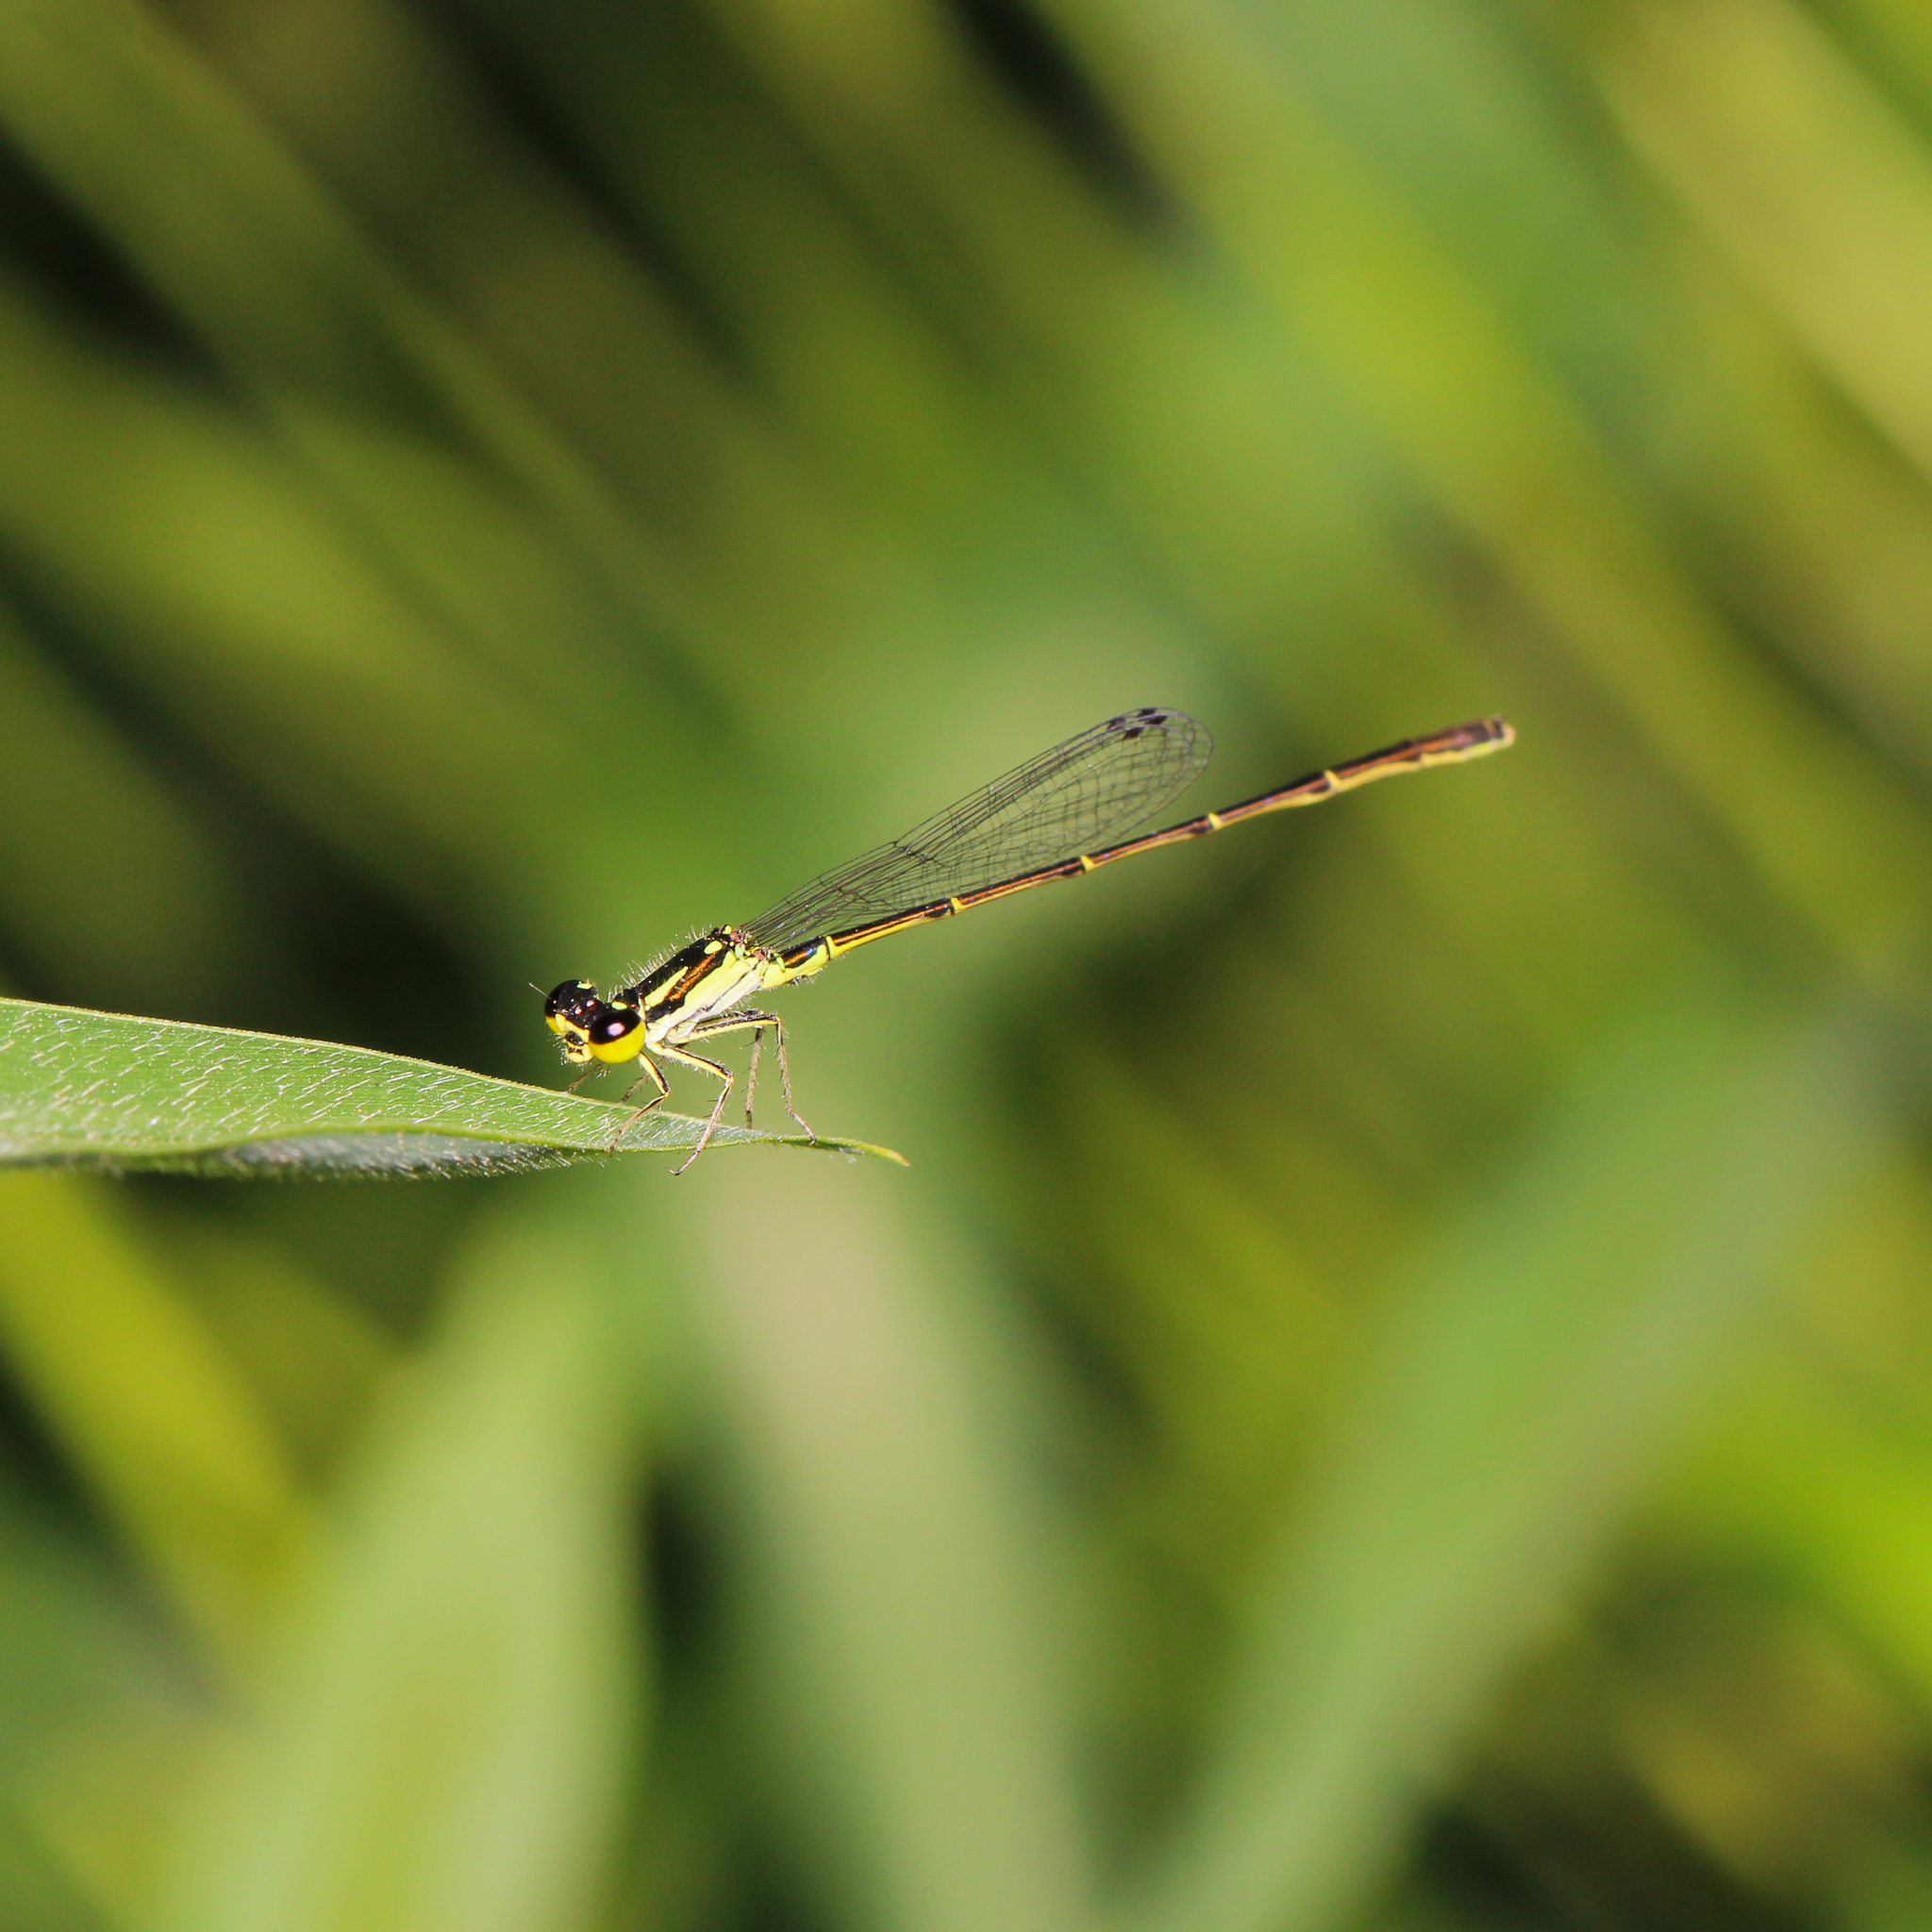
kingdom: Animalia
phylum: Arthropoda
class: Insecta
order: Odonata
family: Coenagrionidae
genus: Ischnura
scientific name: Ischnura posita
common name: Fragile forktail
